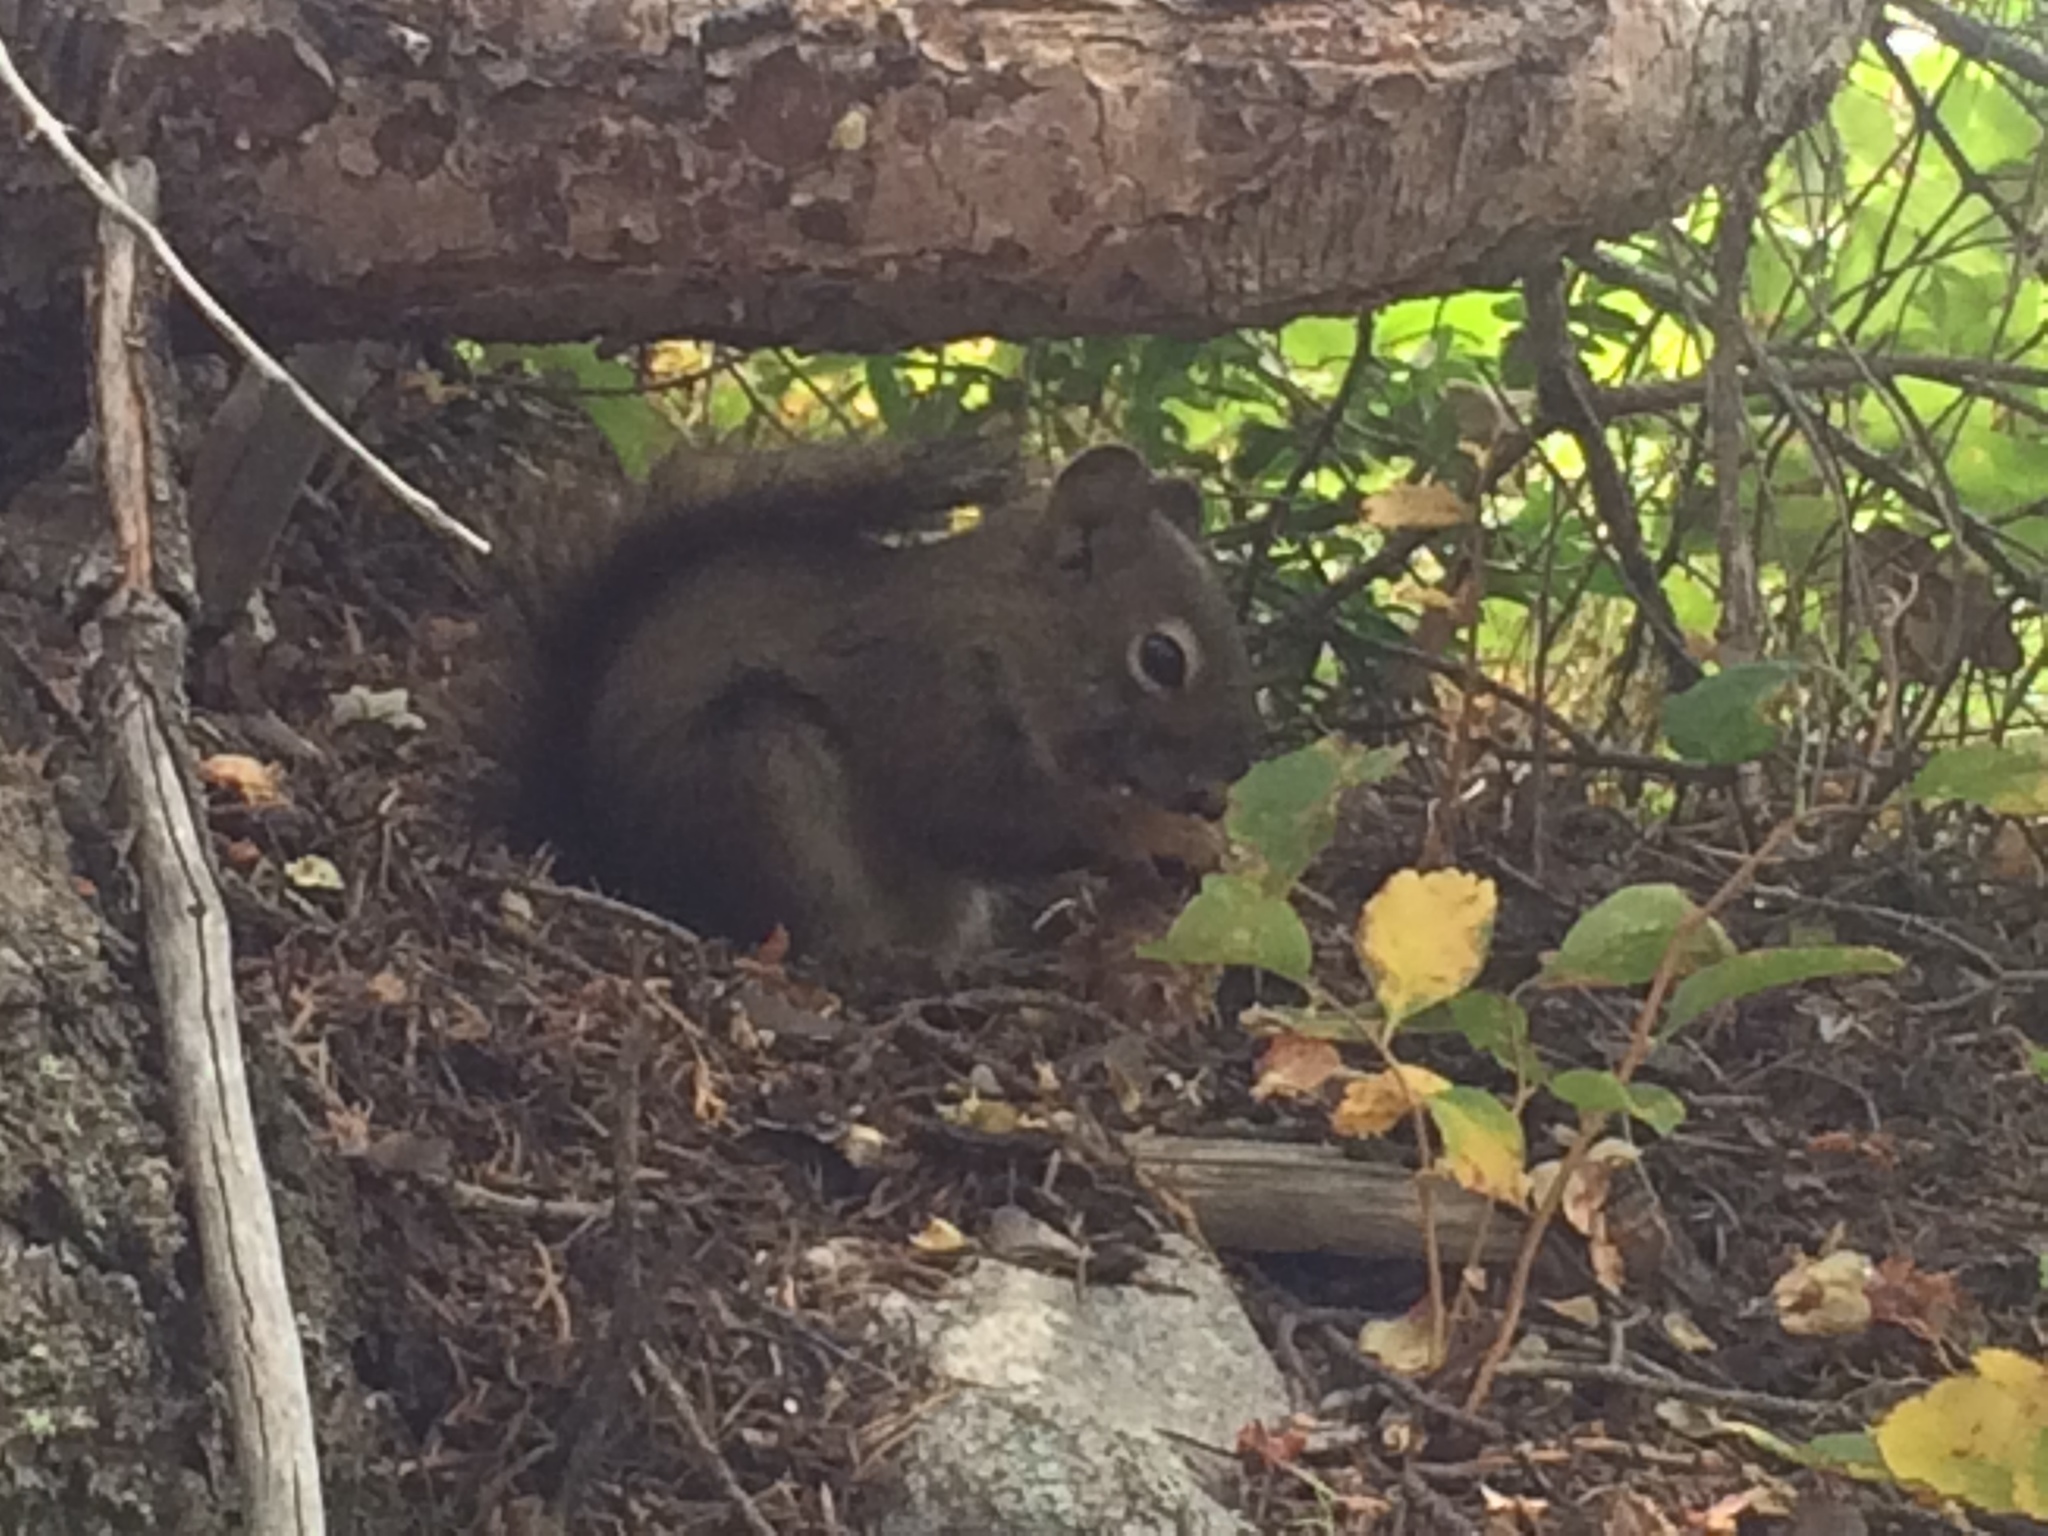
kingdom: Animalia
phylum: Chordata
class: Mammalia
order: Rodentia
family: Sciuridae
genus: Tamiasciurus
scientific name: Tamiasciurus hudsonicus
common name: Red squirrel
